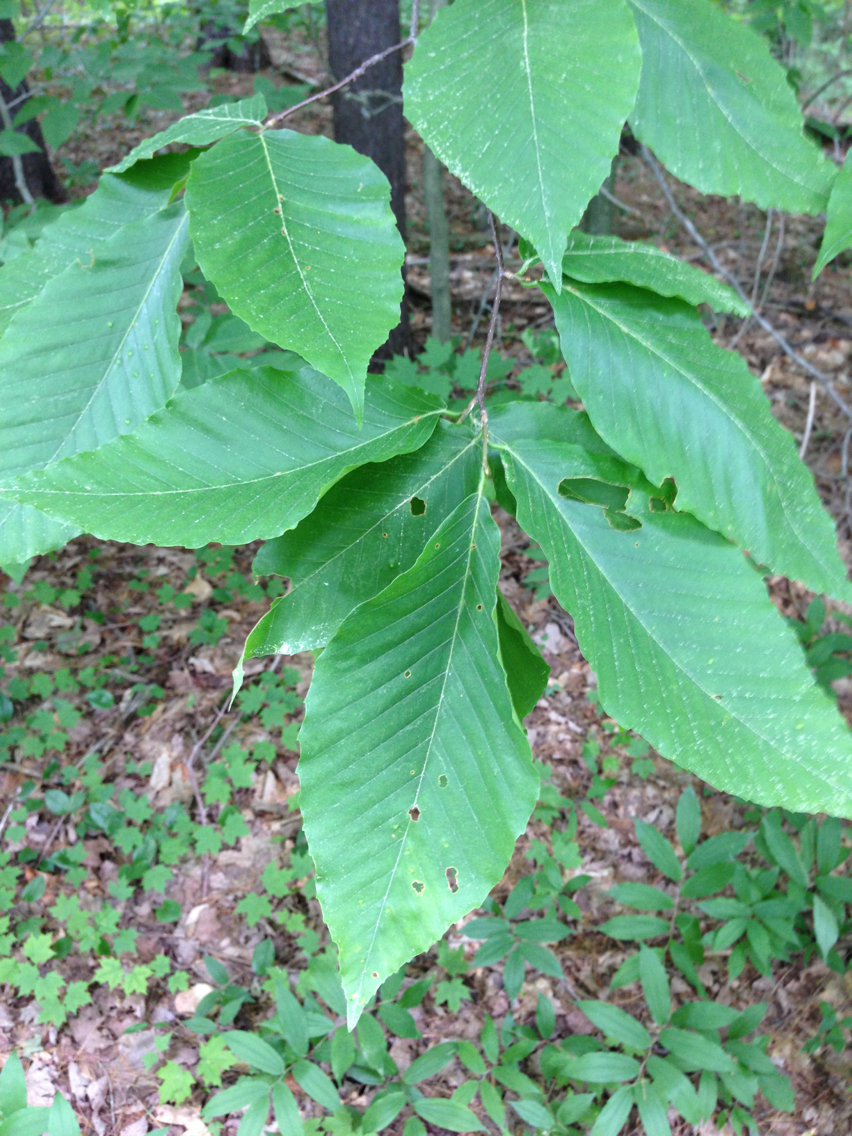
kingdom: Plantae
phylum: Tracheophyta
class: Magnoliopsida
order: Fagales
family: Fagaceae
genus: Fagus
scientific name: Fagus grandifolia
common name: American beech
